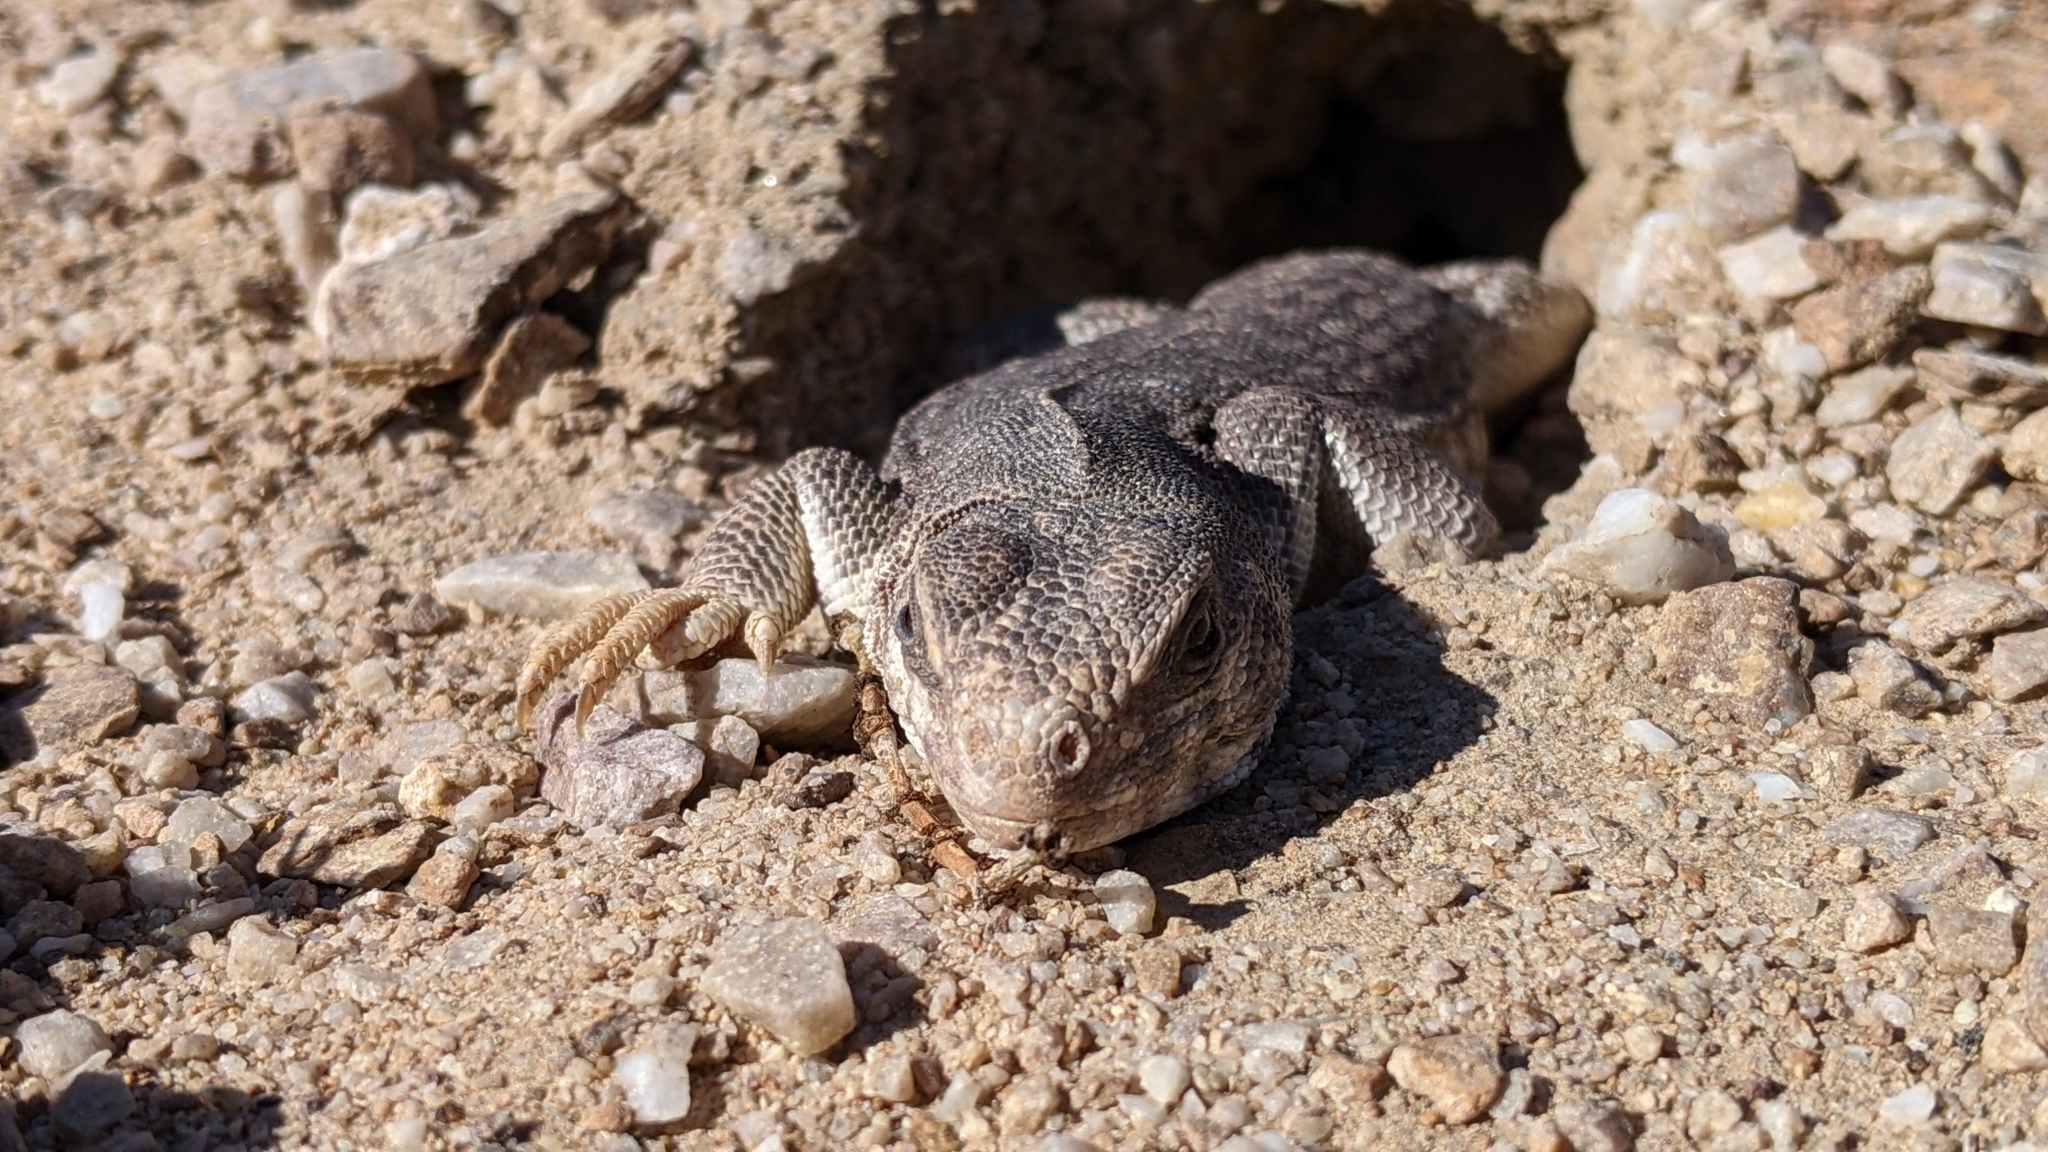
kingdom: Animalia
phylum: Chordata
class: Squamata
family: Iguanidae
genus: Dipsosaurus
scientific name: Dipsosaurus dorsalis
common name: Desert iguana
